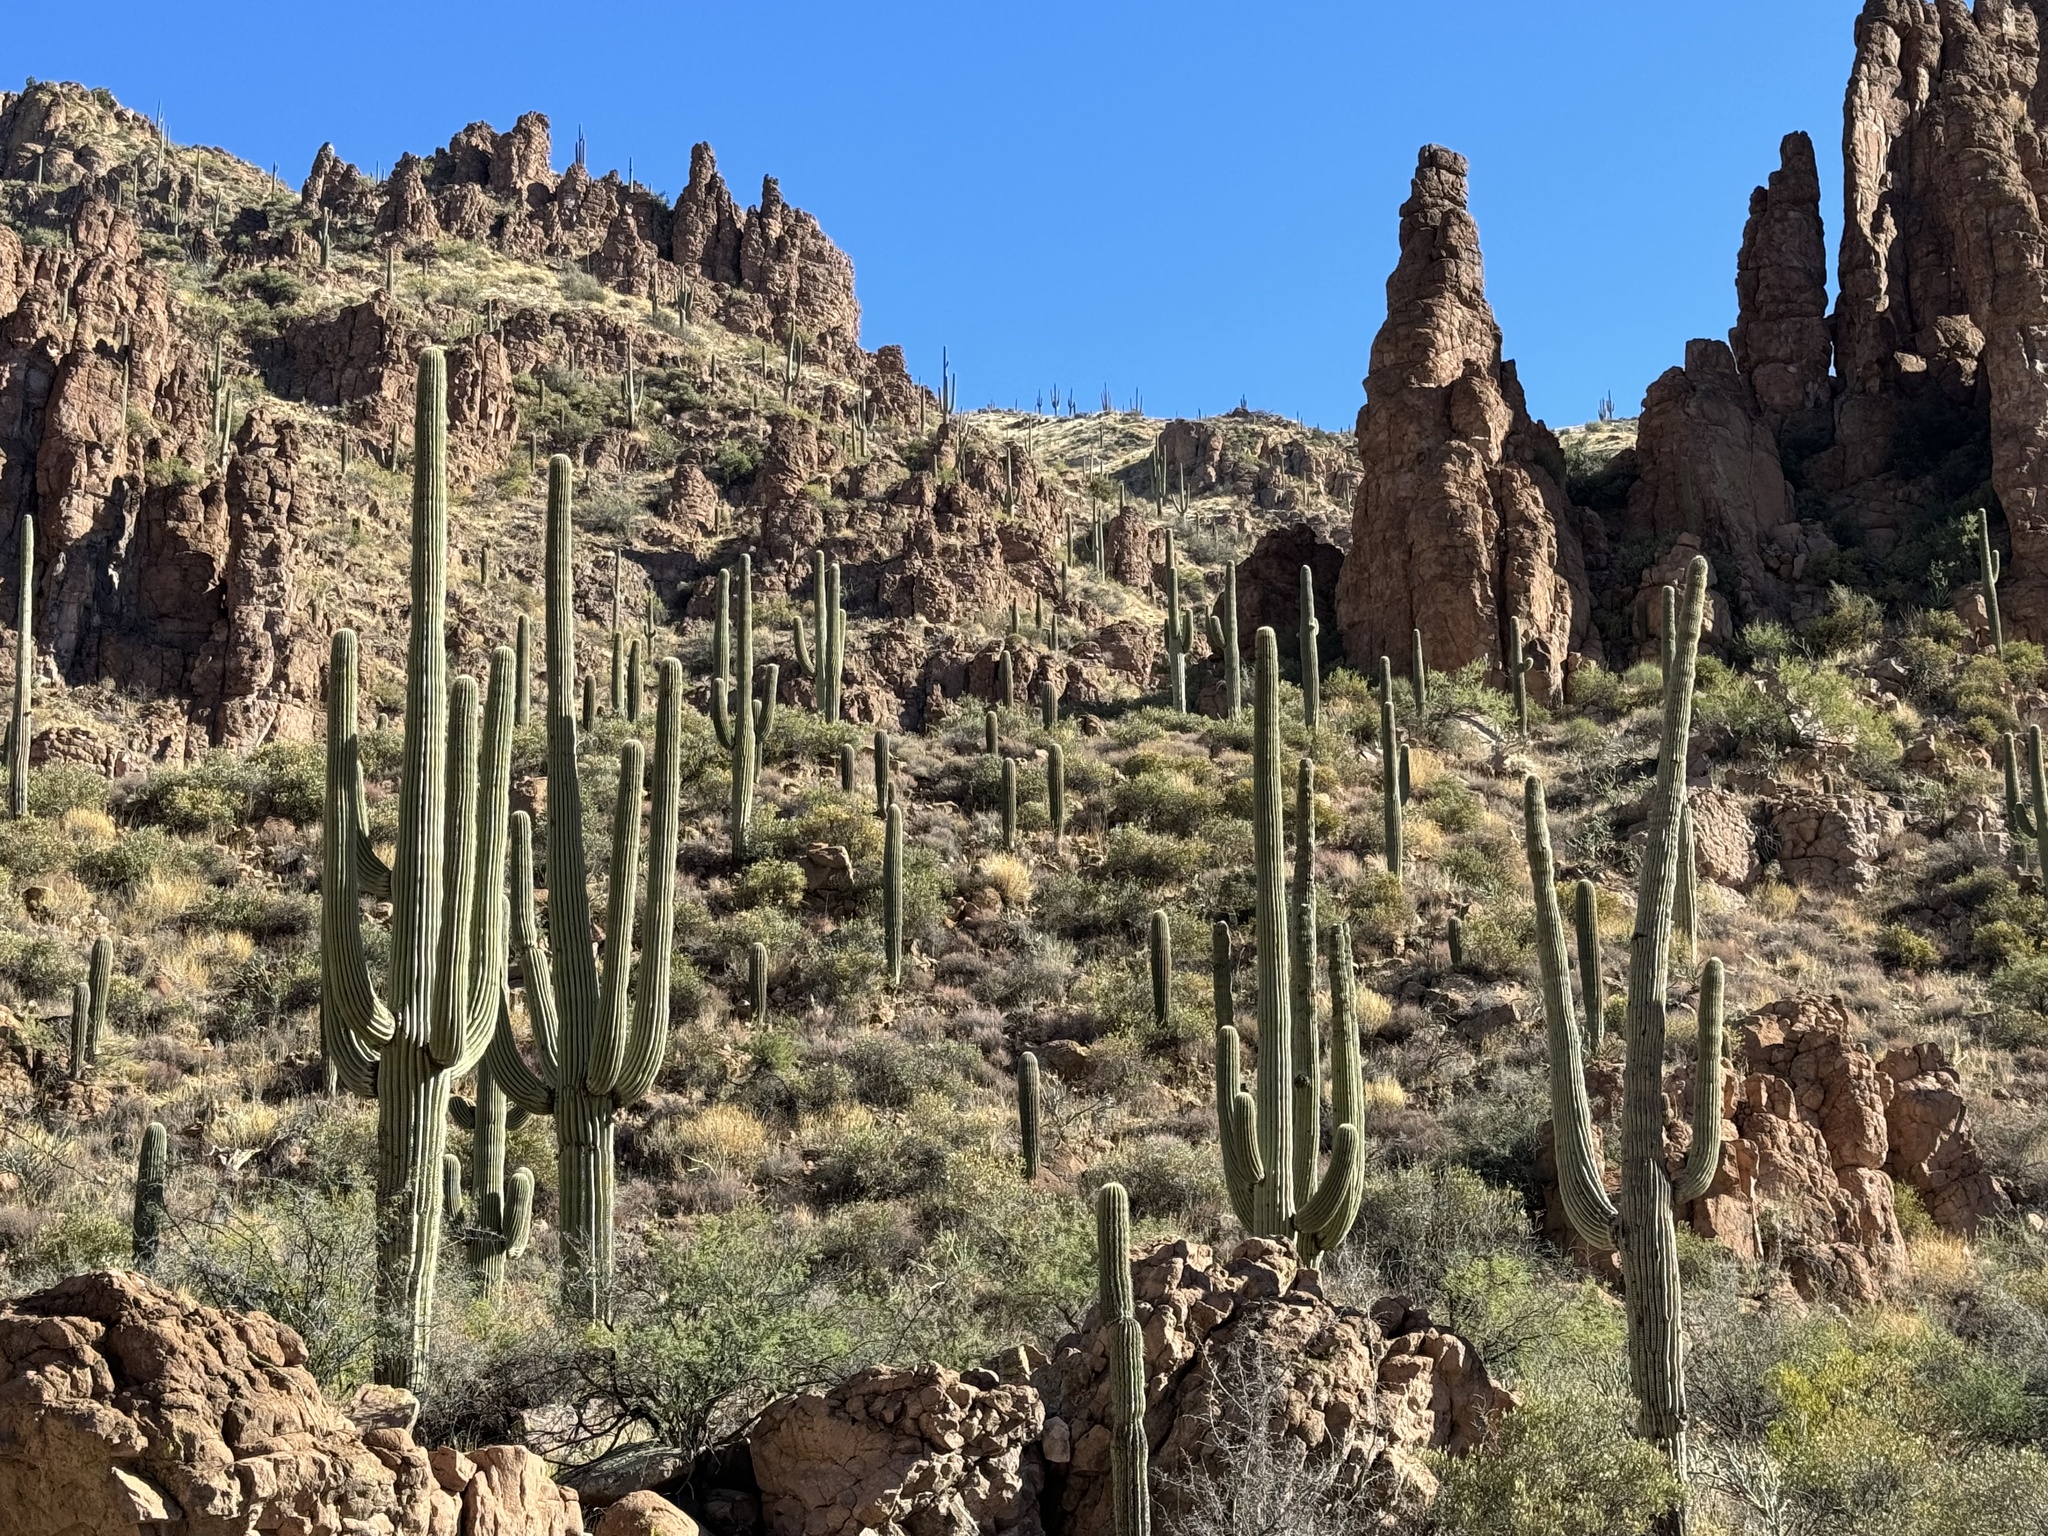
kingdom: Plantae
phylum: Tracheophyta
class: Magnoliopsida
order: Caryophyllales
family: Cactaceae
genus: Carnegiea
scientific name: Carnegiea gigantea
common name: Saguaro
